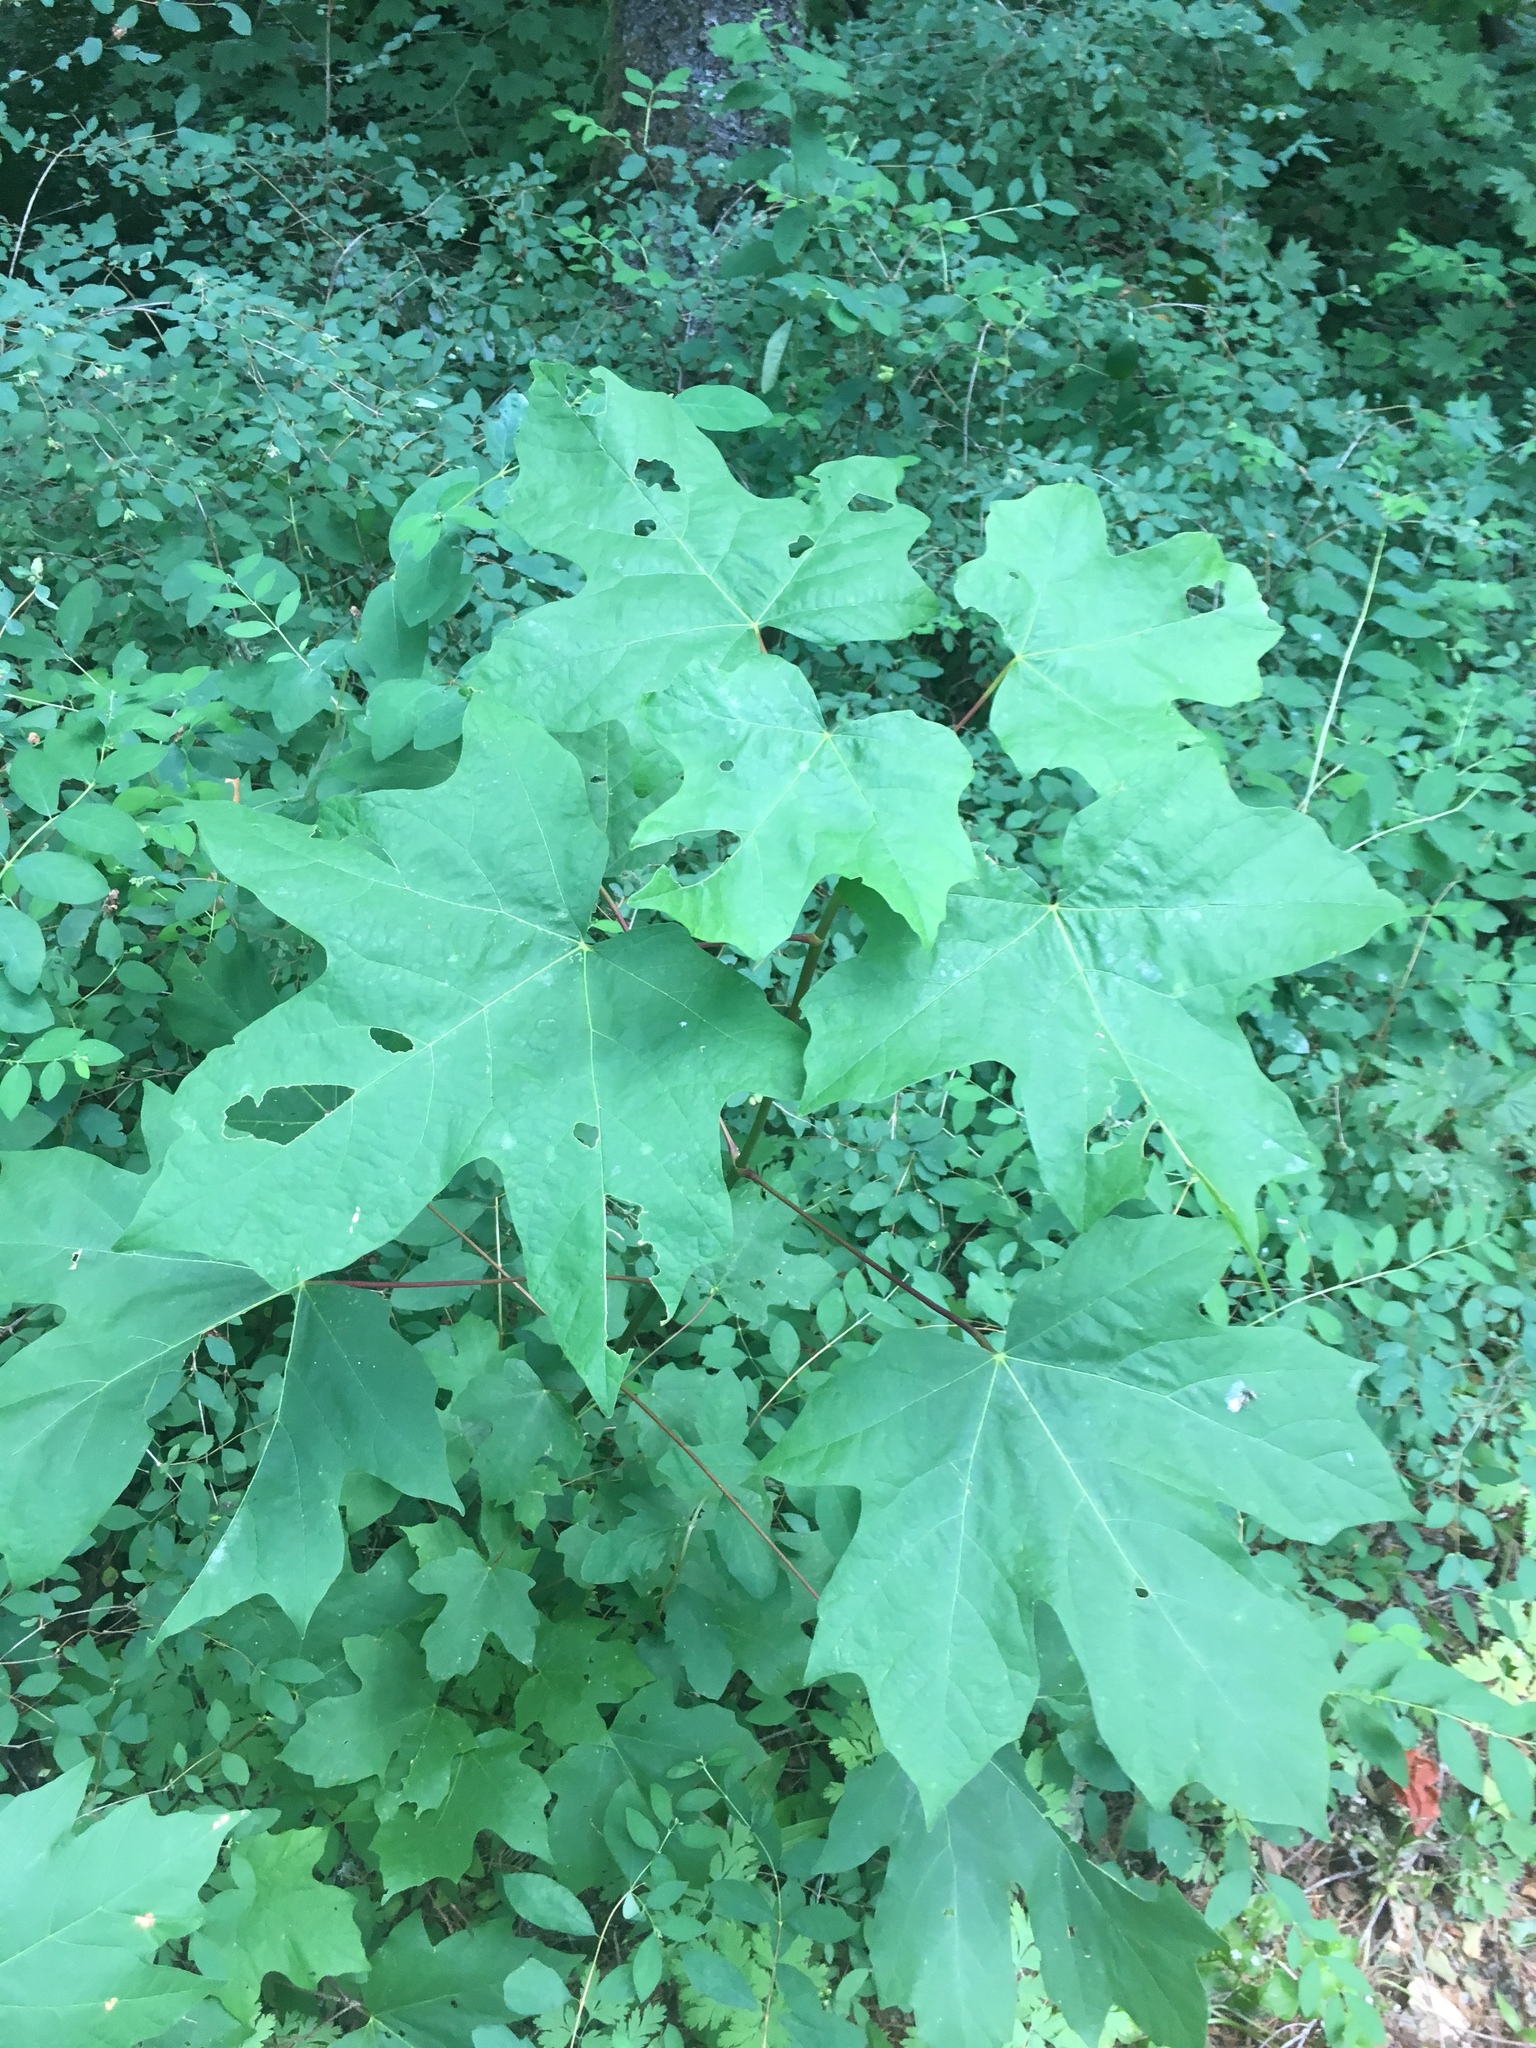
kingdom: Plantae
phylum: Tracheophyta
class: Magnoliopsida
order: Sapindales
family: Sapindaceae
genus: Acer
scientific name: Acer macrophyllum
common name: Oregon maple
